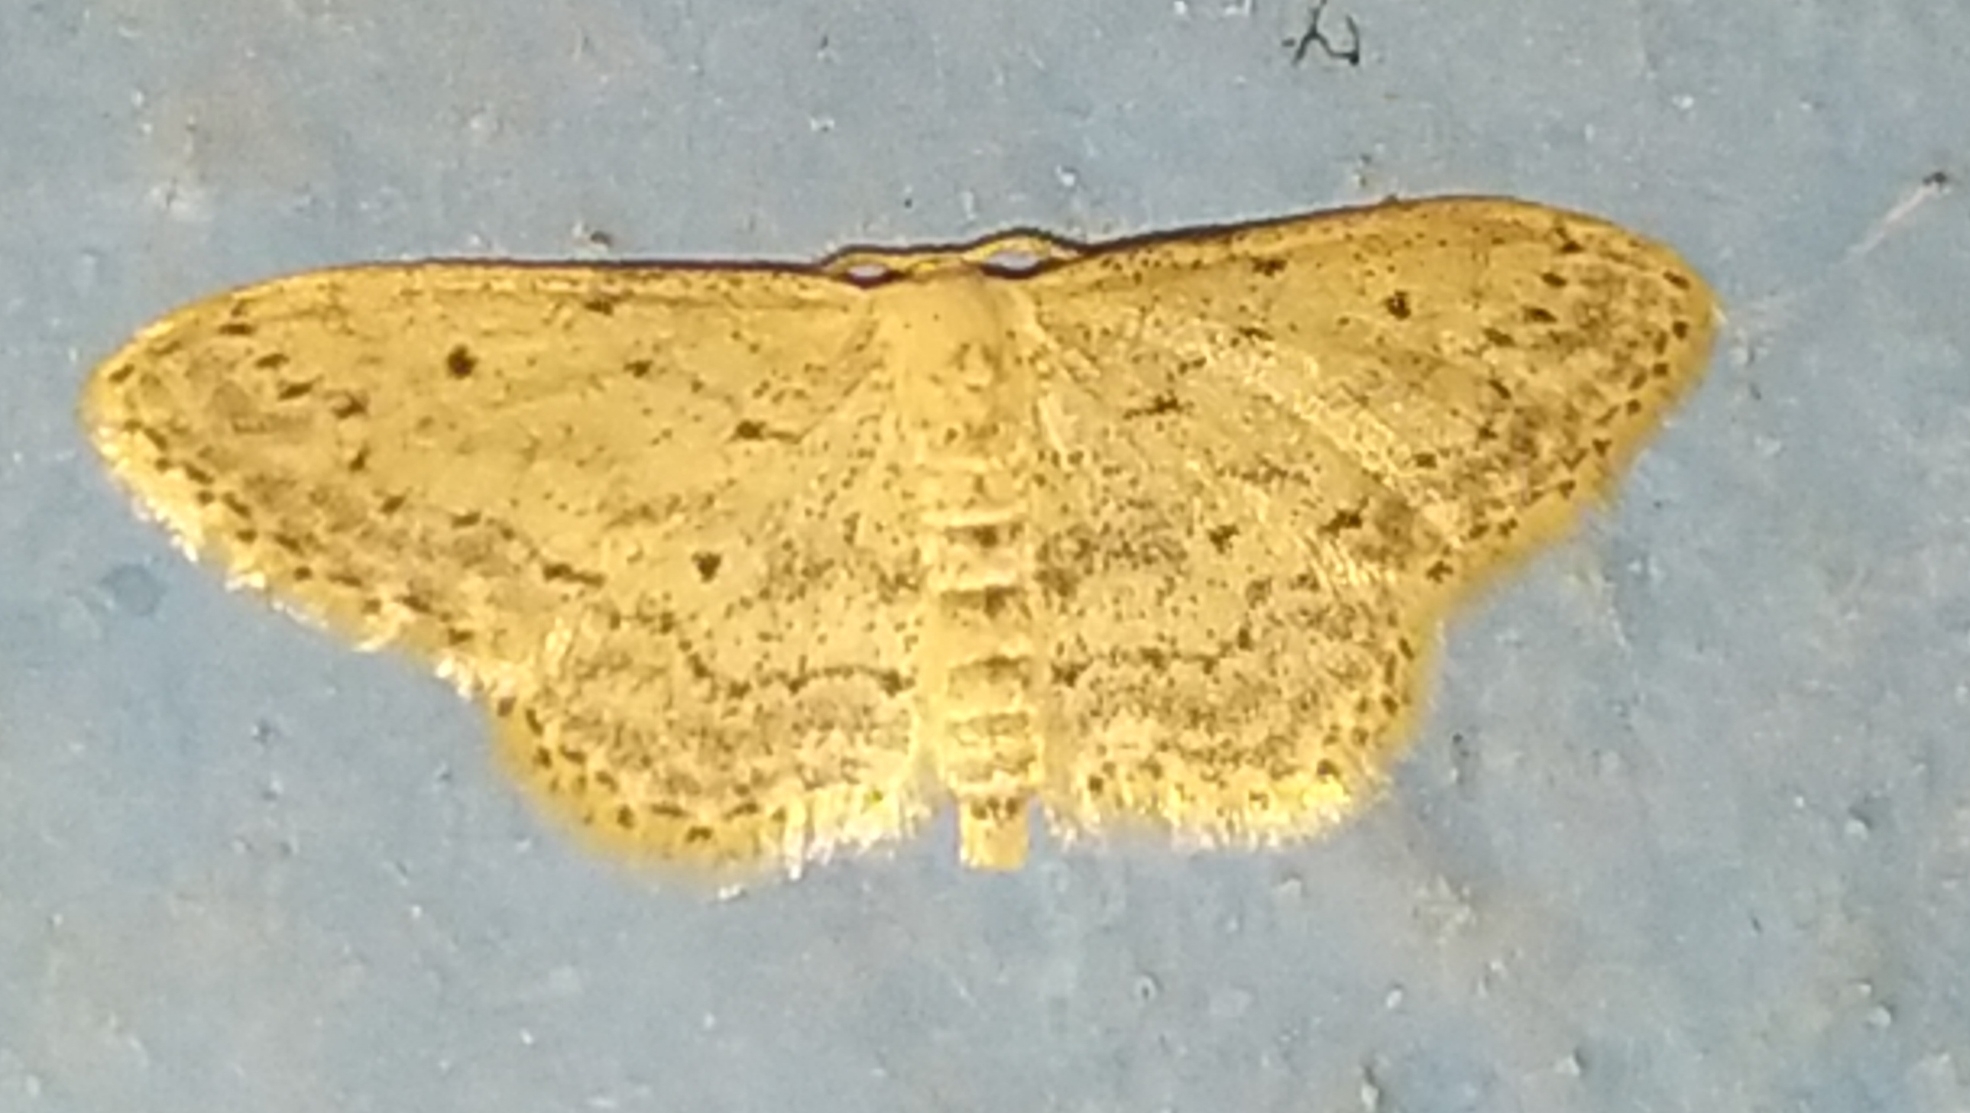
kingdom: Animalia
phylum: Arthropoda
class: Insecta
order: Lepidoptera
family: Geometridae
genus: Idaea
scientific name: Idaea seriata
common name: Small dusty wave
